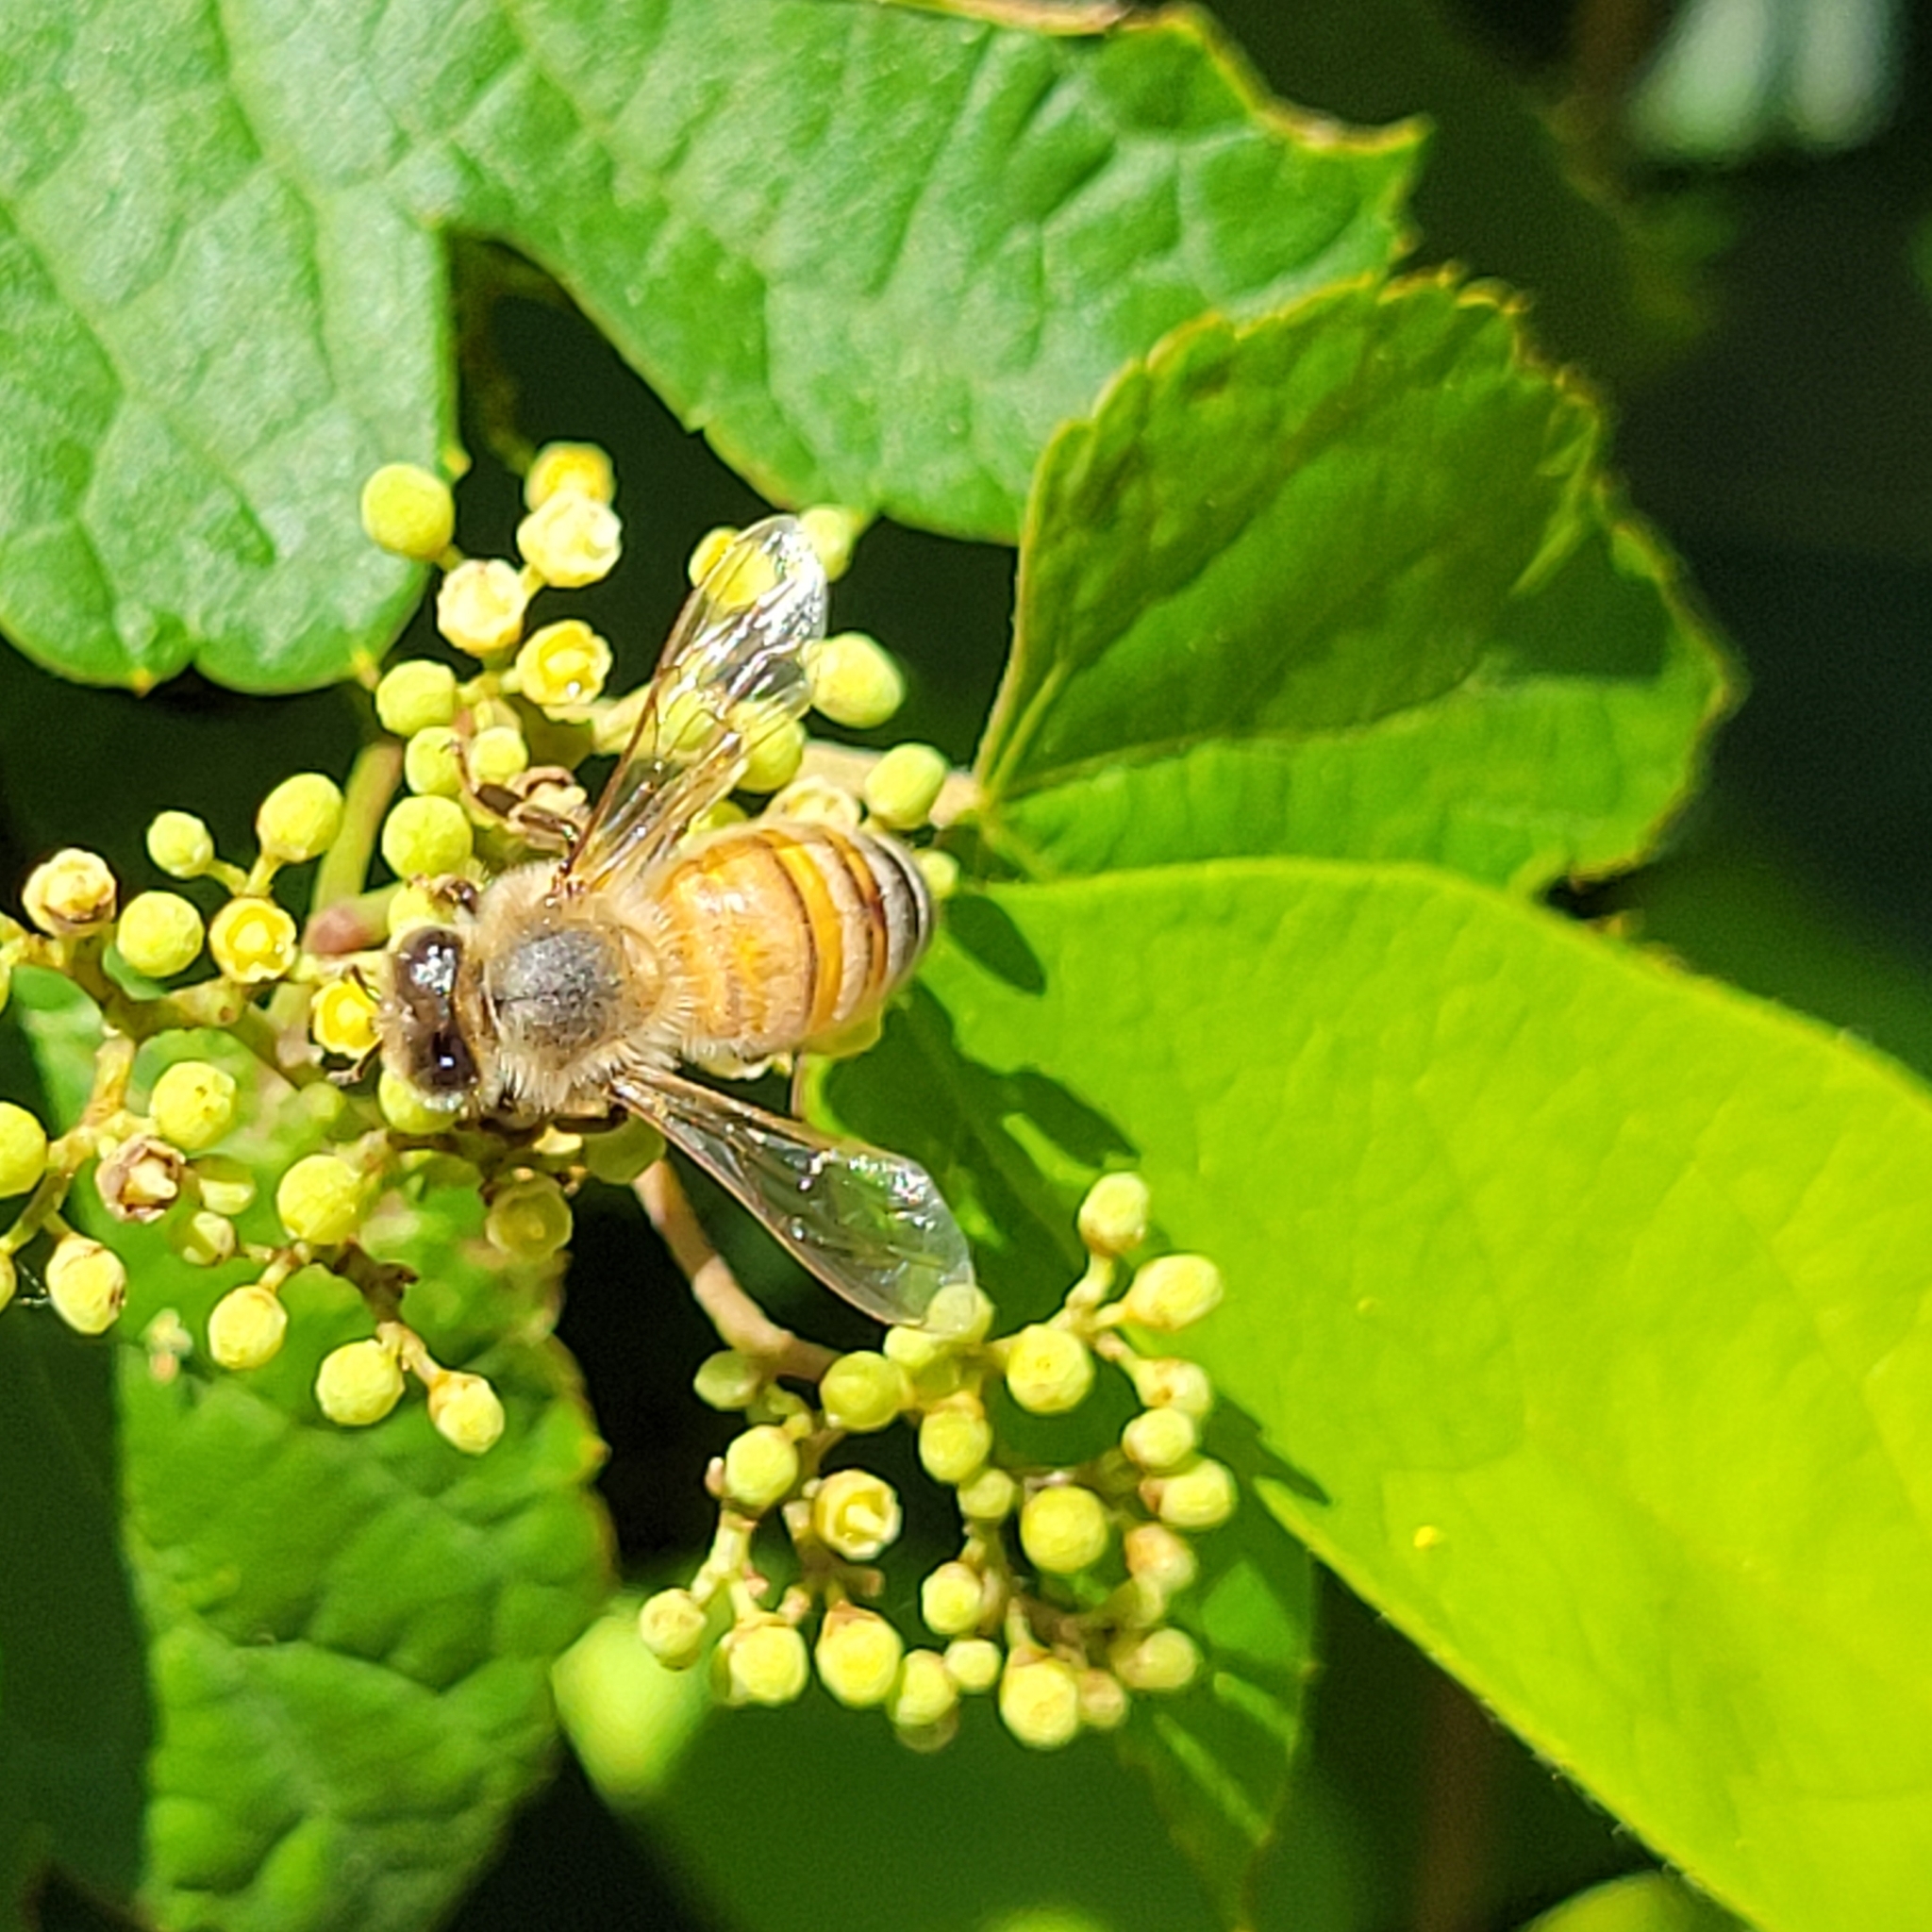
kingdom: Animalia
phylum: Arthropoda
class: Insecta
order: Hymenoptera
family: Apidae
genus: Apis
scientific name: Apis mellifera
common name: Honey bee
